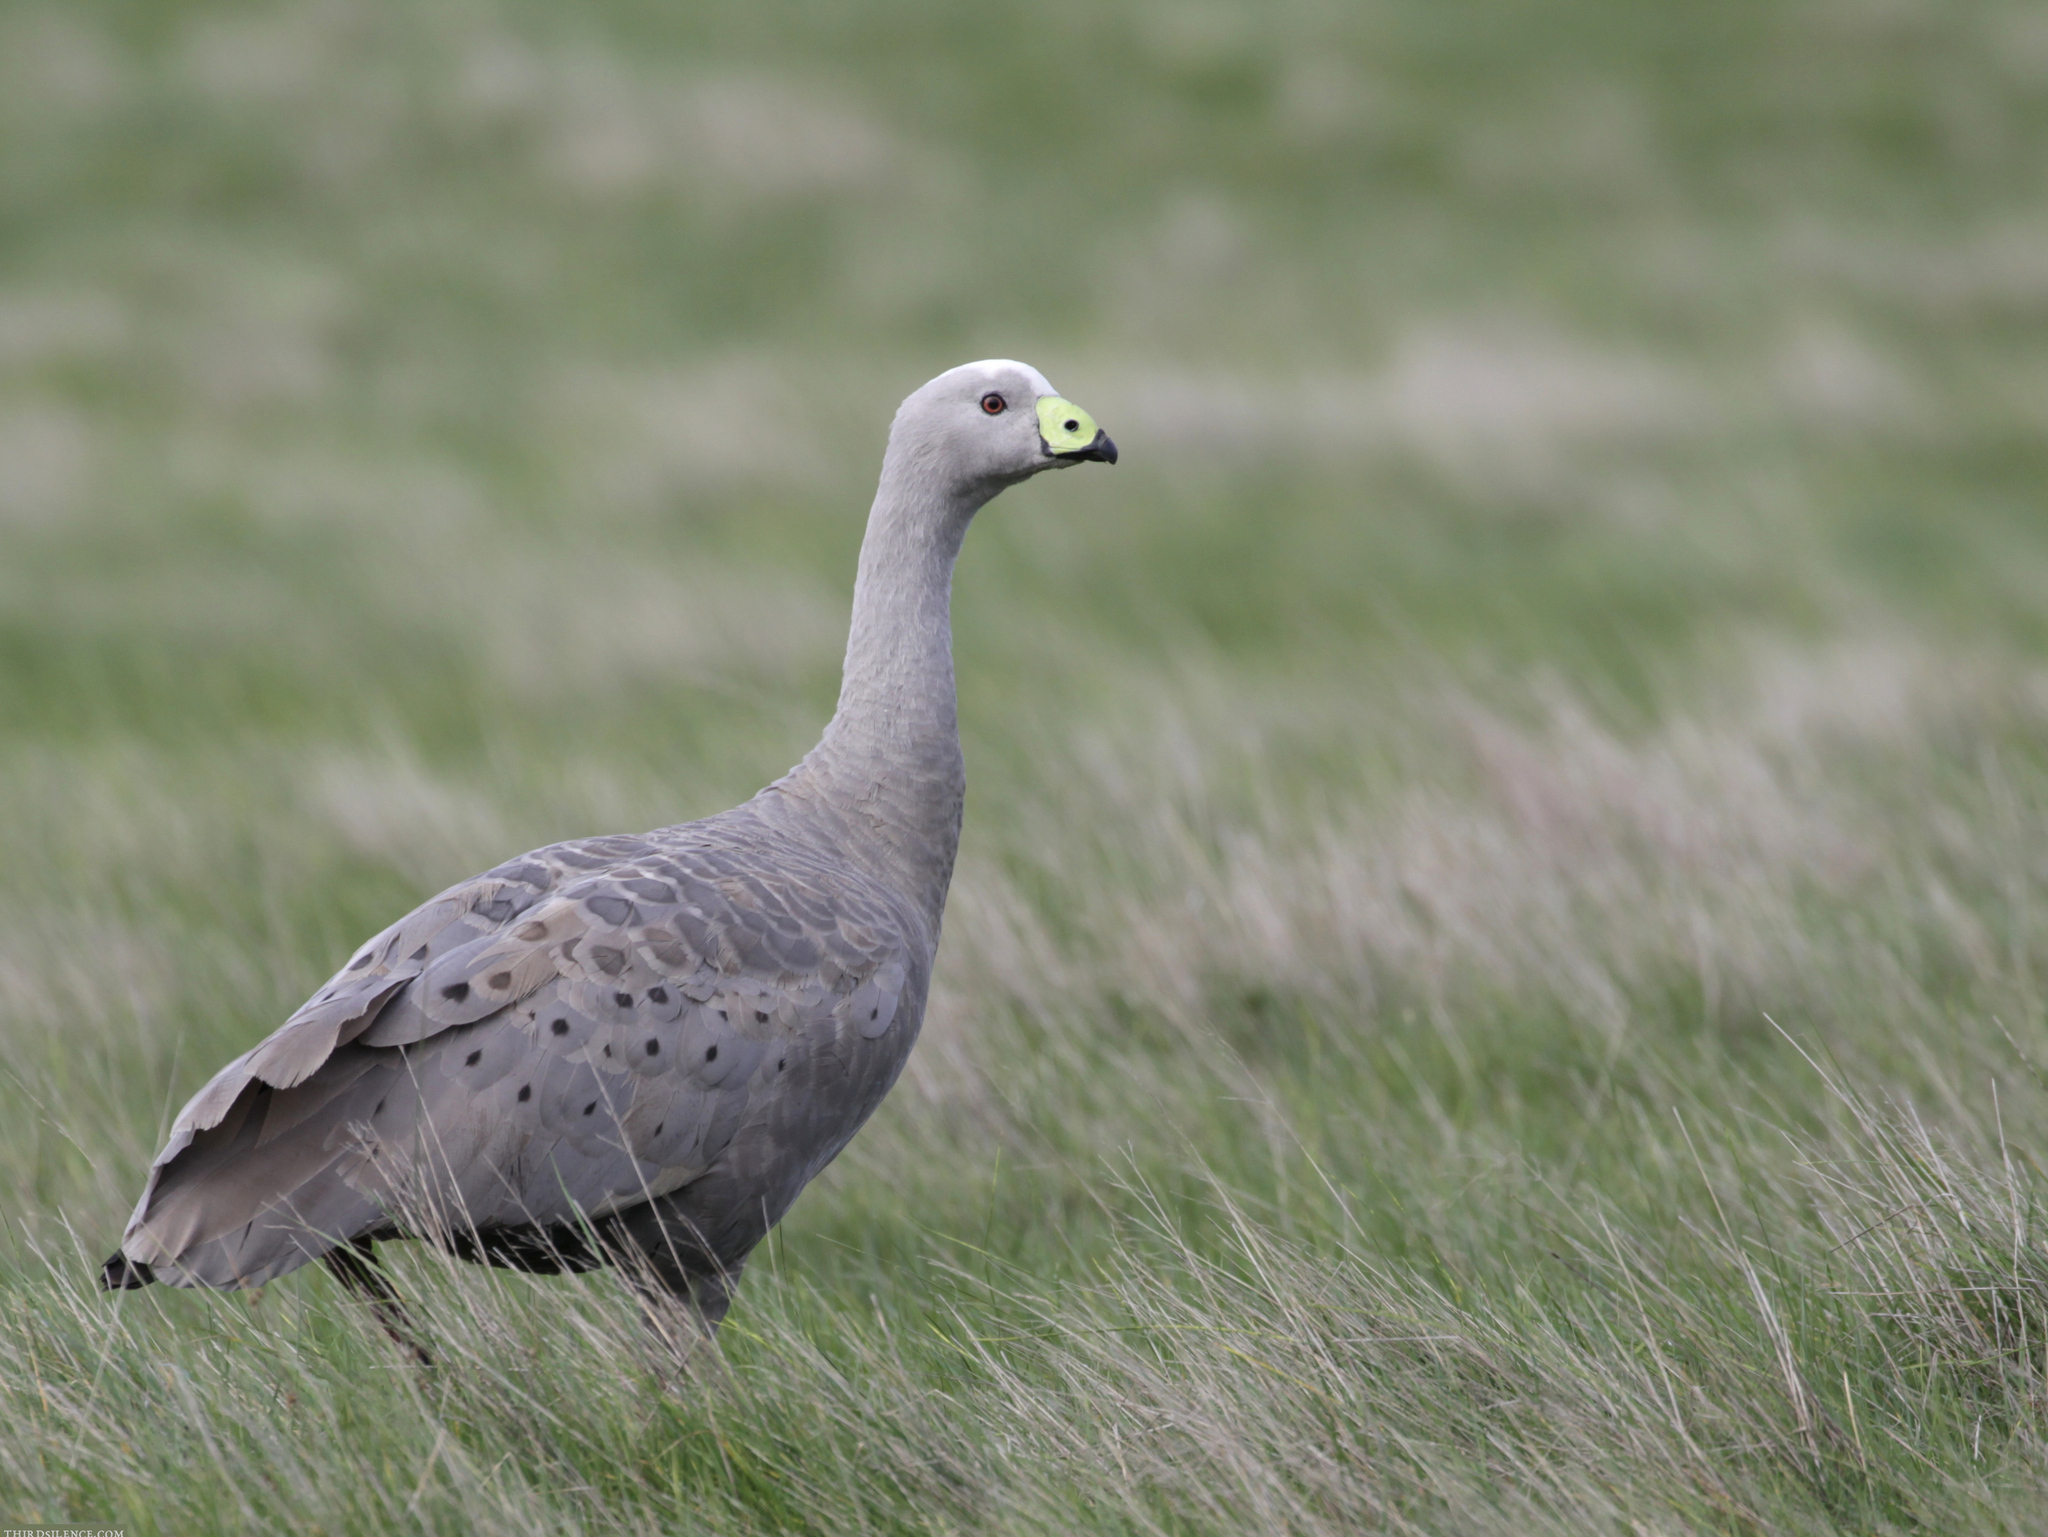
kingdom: Animalia
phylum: Chordata
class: Aves
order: Anseriformes
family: Anatidae
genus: Cereopsis
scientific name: Cereopsis novaehollandiae
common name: Cape barren goose
